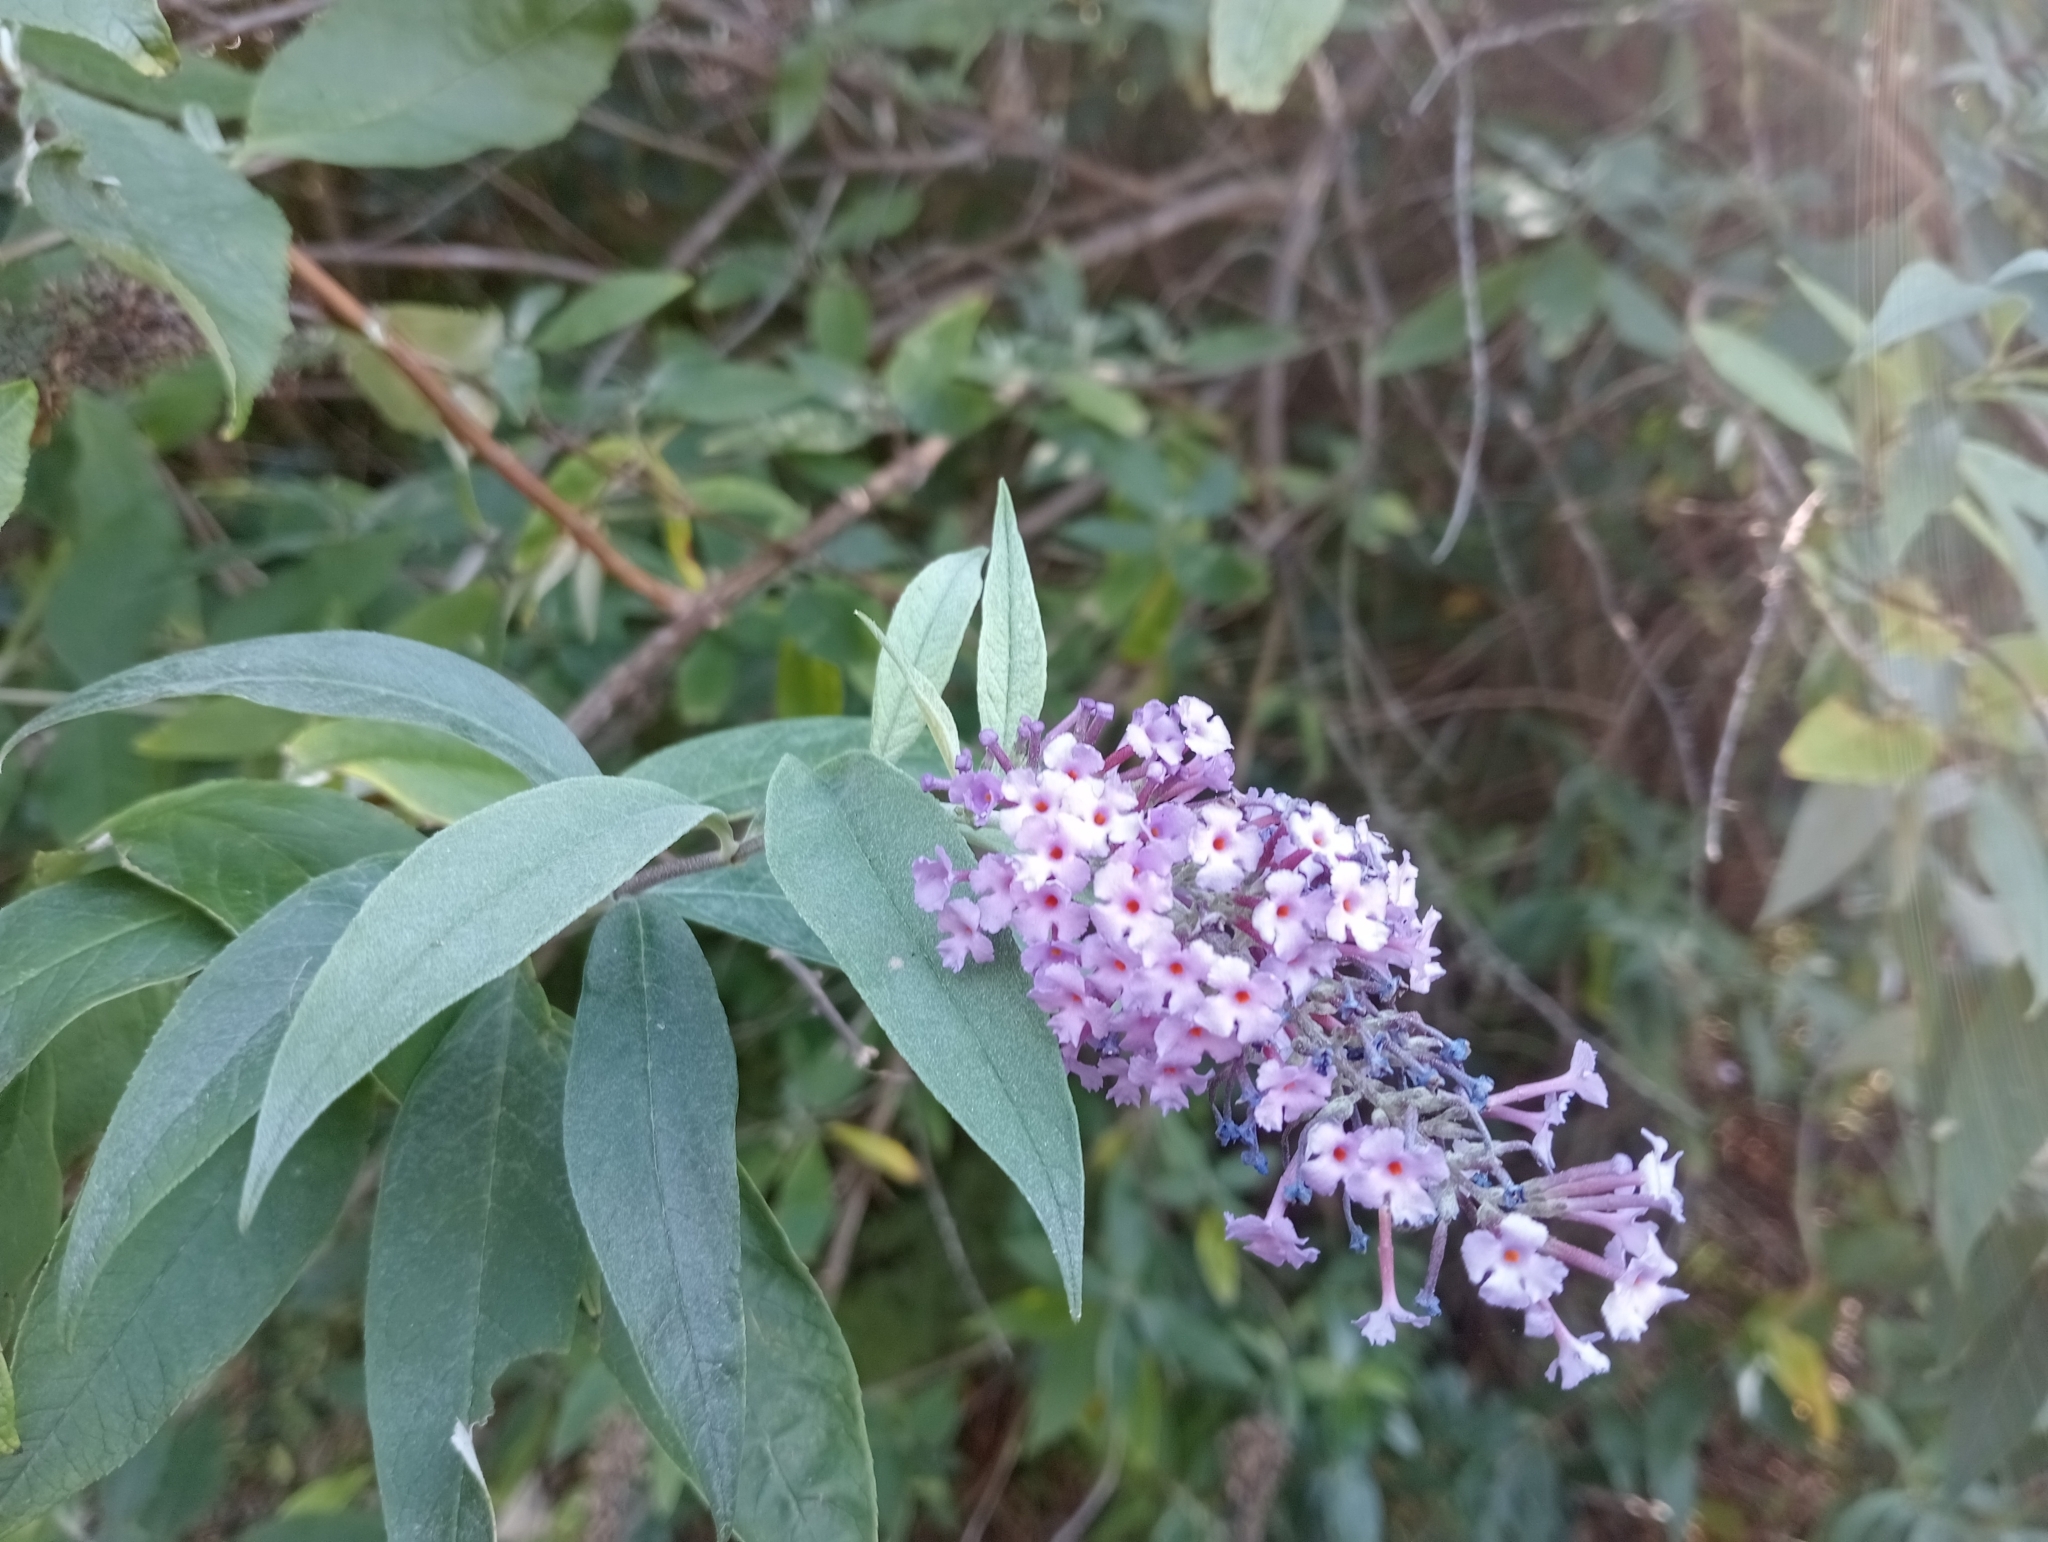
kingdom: Plantae
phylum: Tracheophyta
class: Magnoliopsida
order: Lamiales
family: Scrophulariaceae
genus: Buddleja
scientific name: Buddleja davidii
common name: Butterfly-bush
